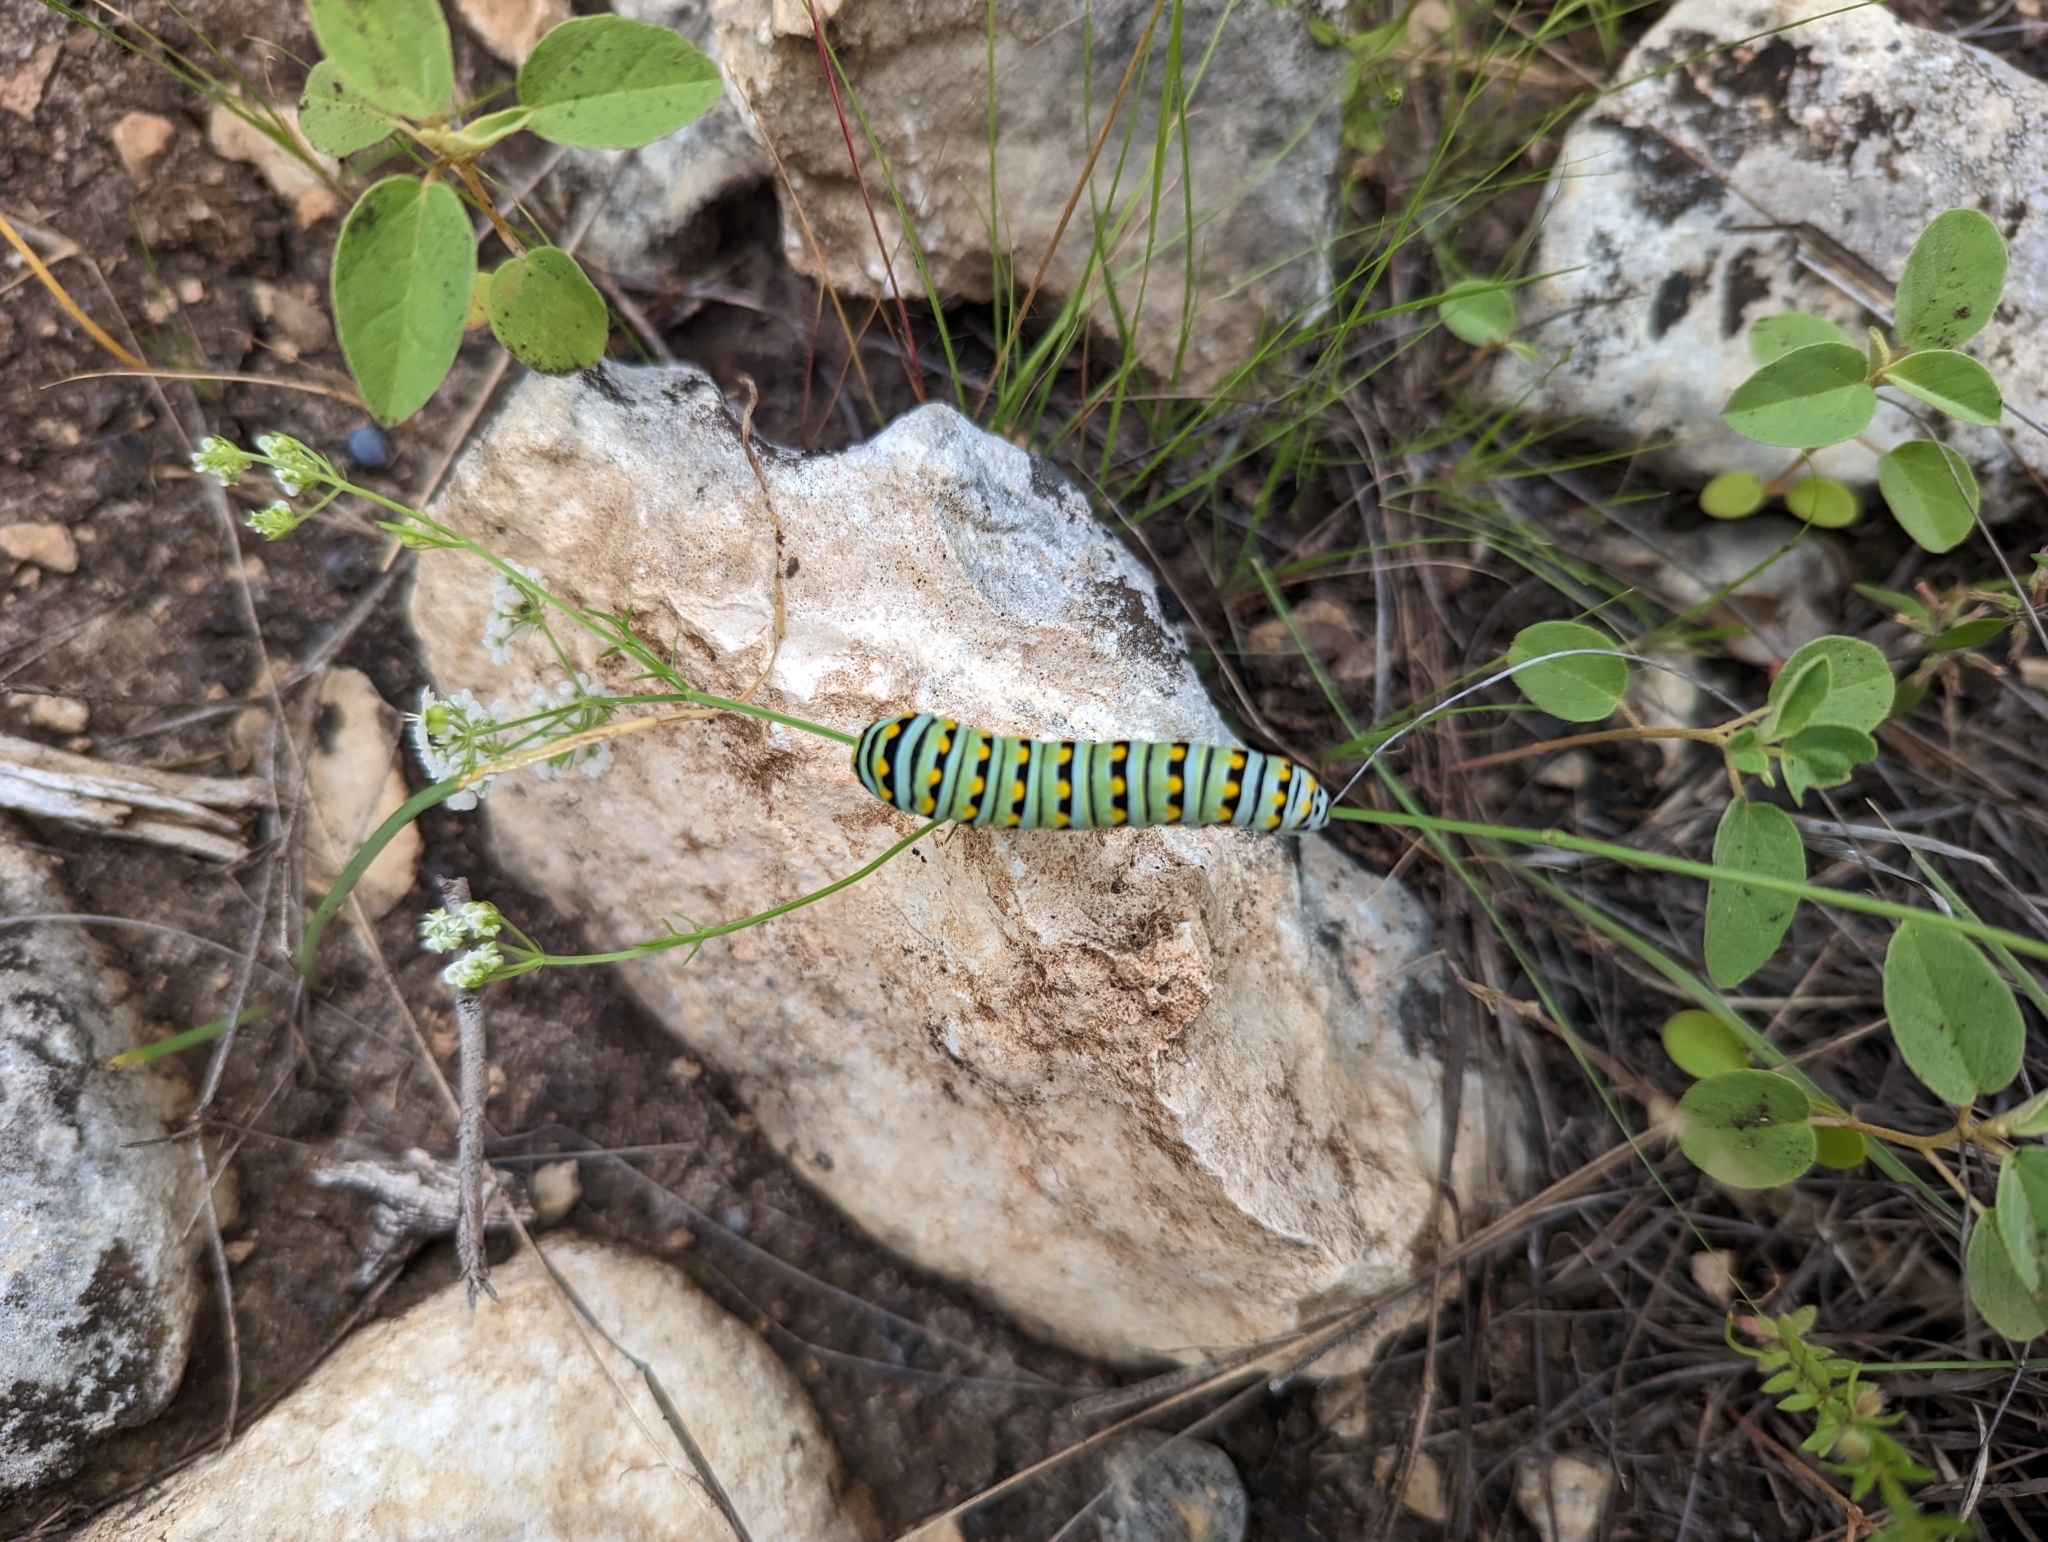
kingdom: Animalia
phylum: Arthropoda
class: Insecta
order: Lepidoptera
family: Papilionidae
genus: Papilio
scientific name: Papilio polyxenes
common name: Black swallowtail
